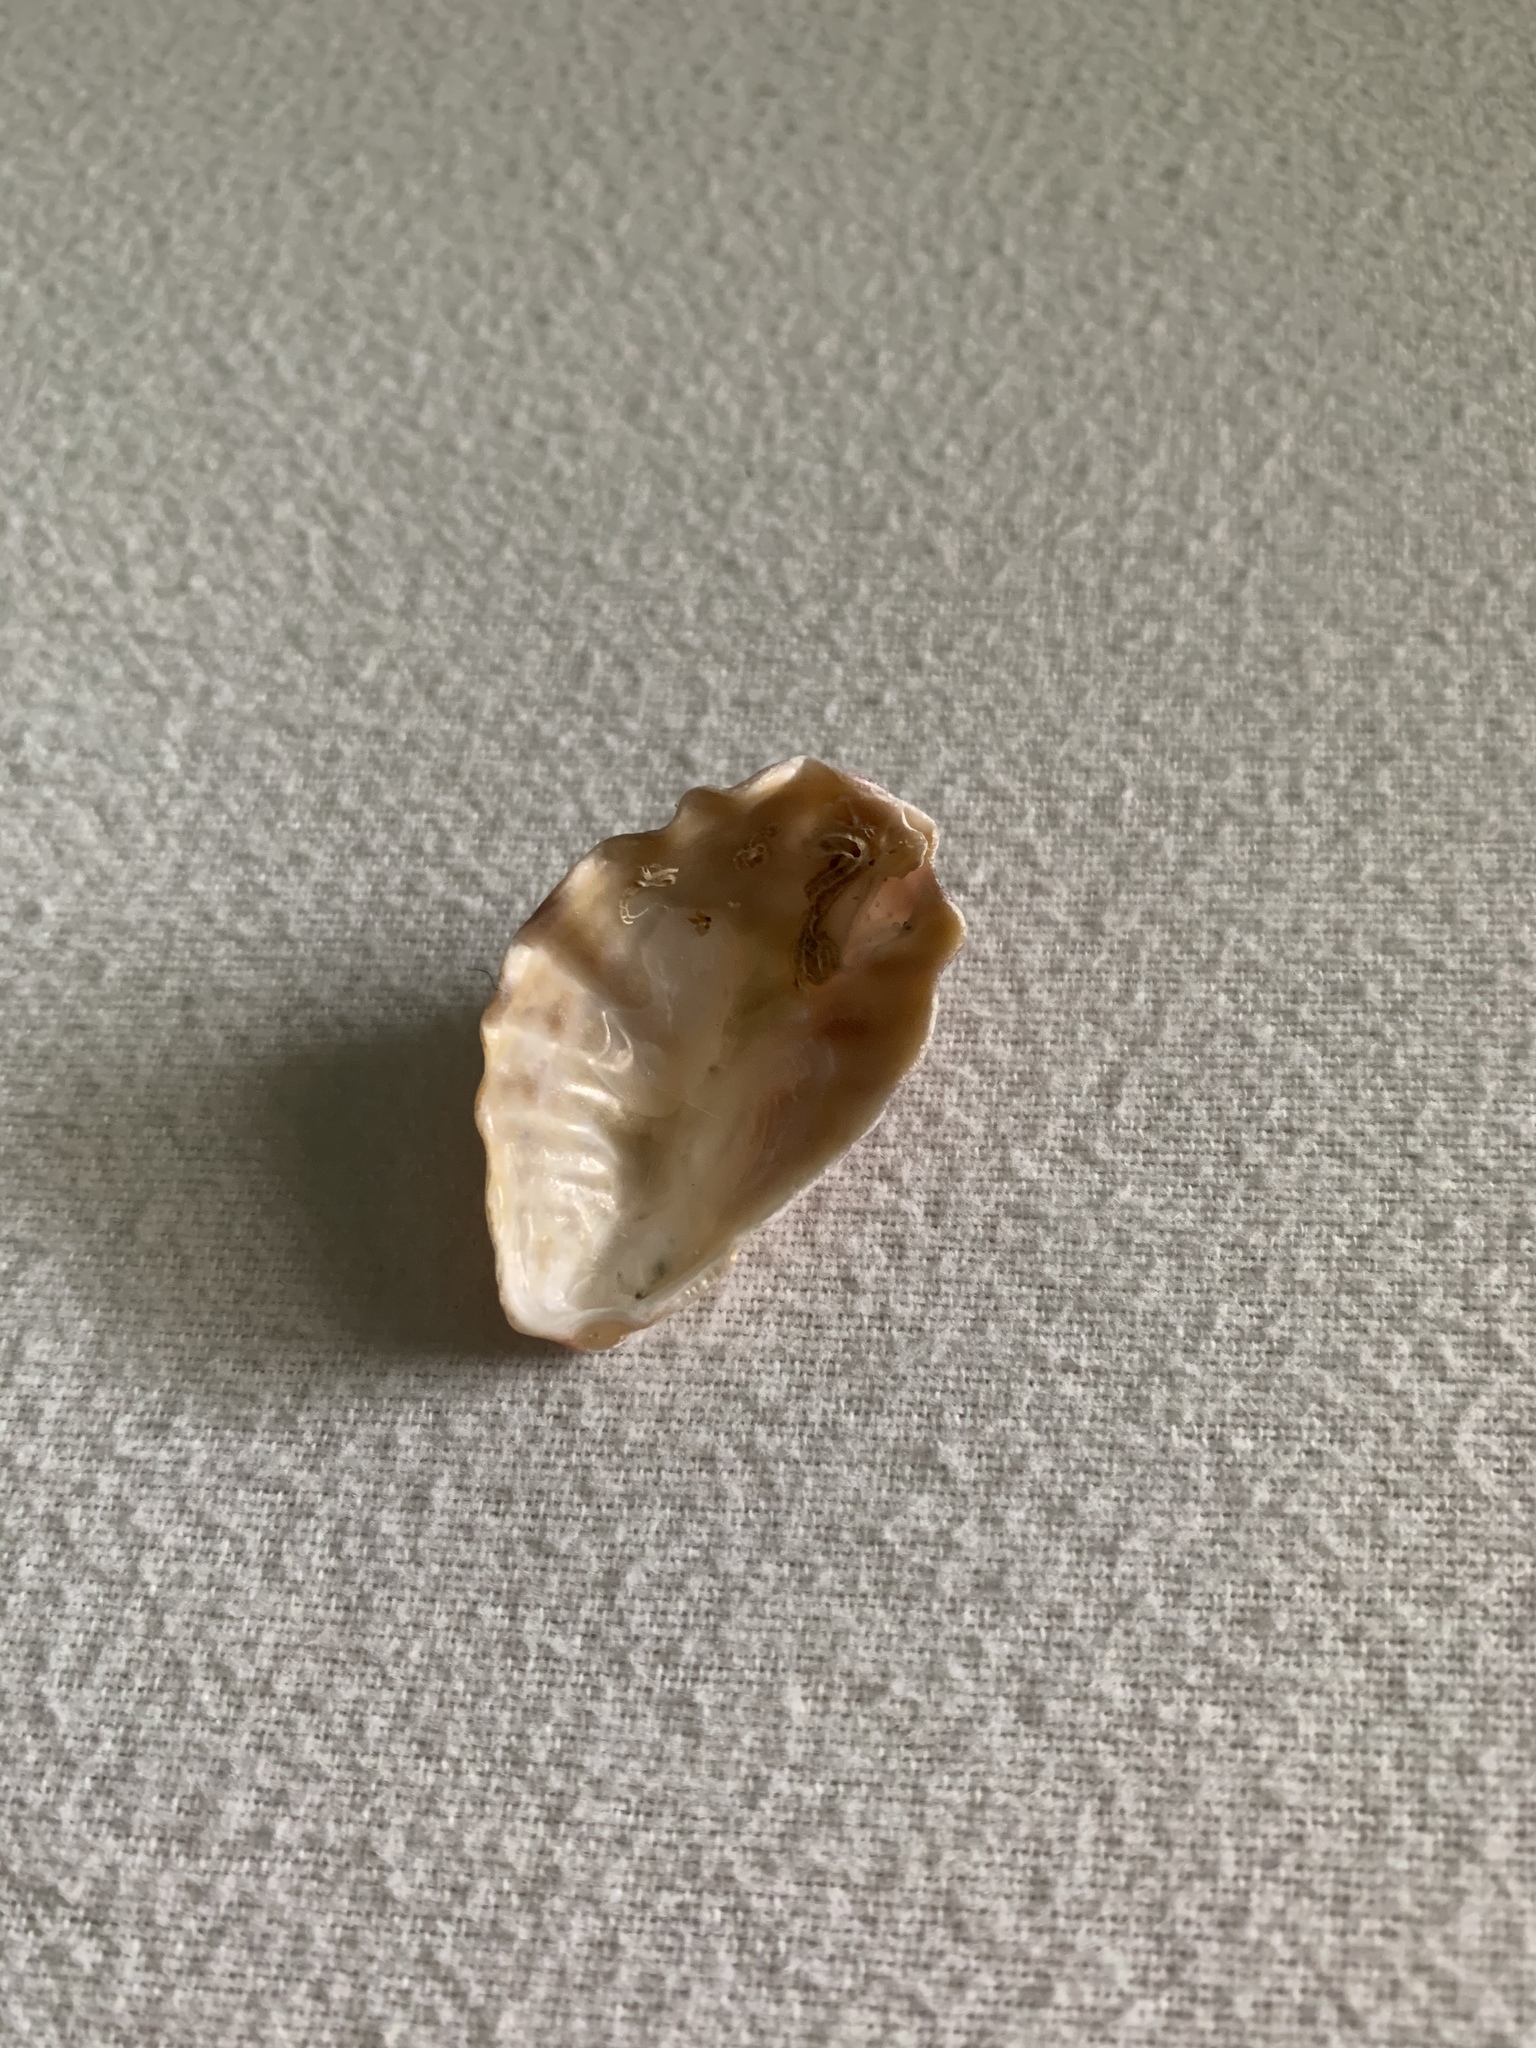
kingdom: Animalia
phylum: Mollusca
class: Bivalvia
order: Ostreida
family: Ostreidae
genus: Dendostrea
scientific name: Dendostrea frons
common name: Frond oyster
